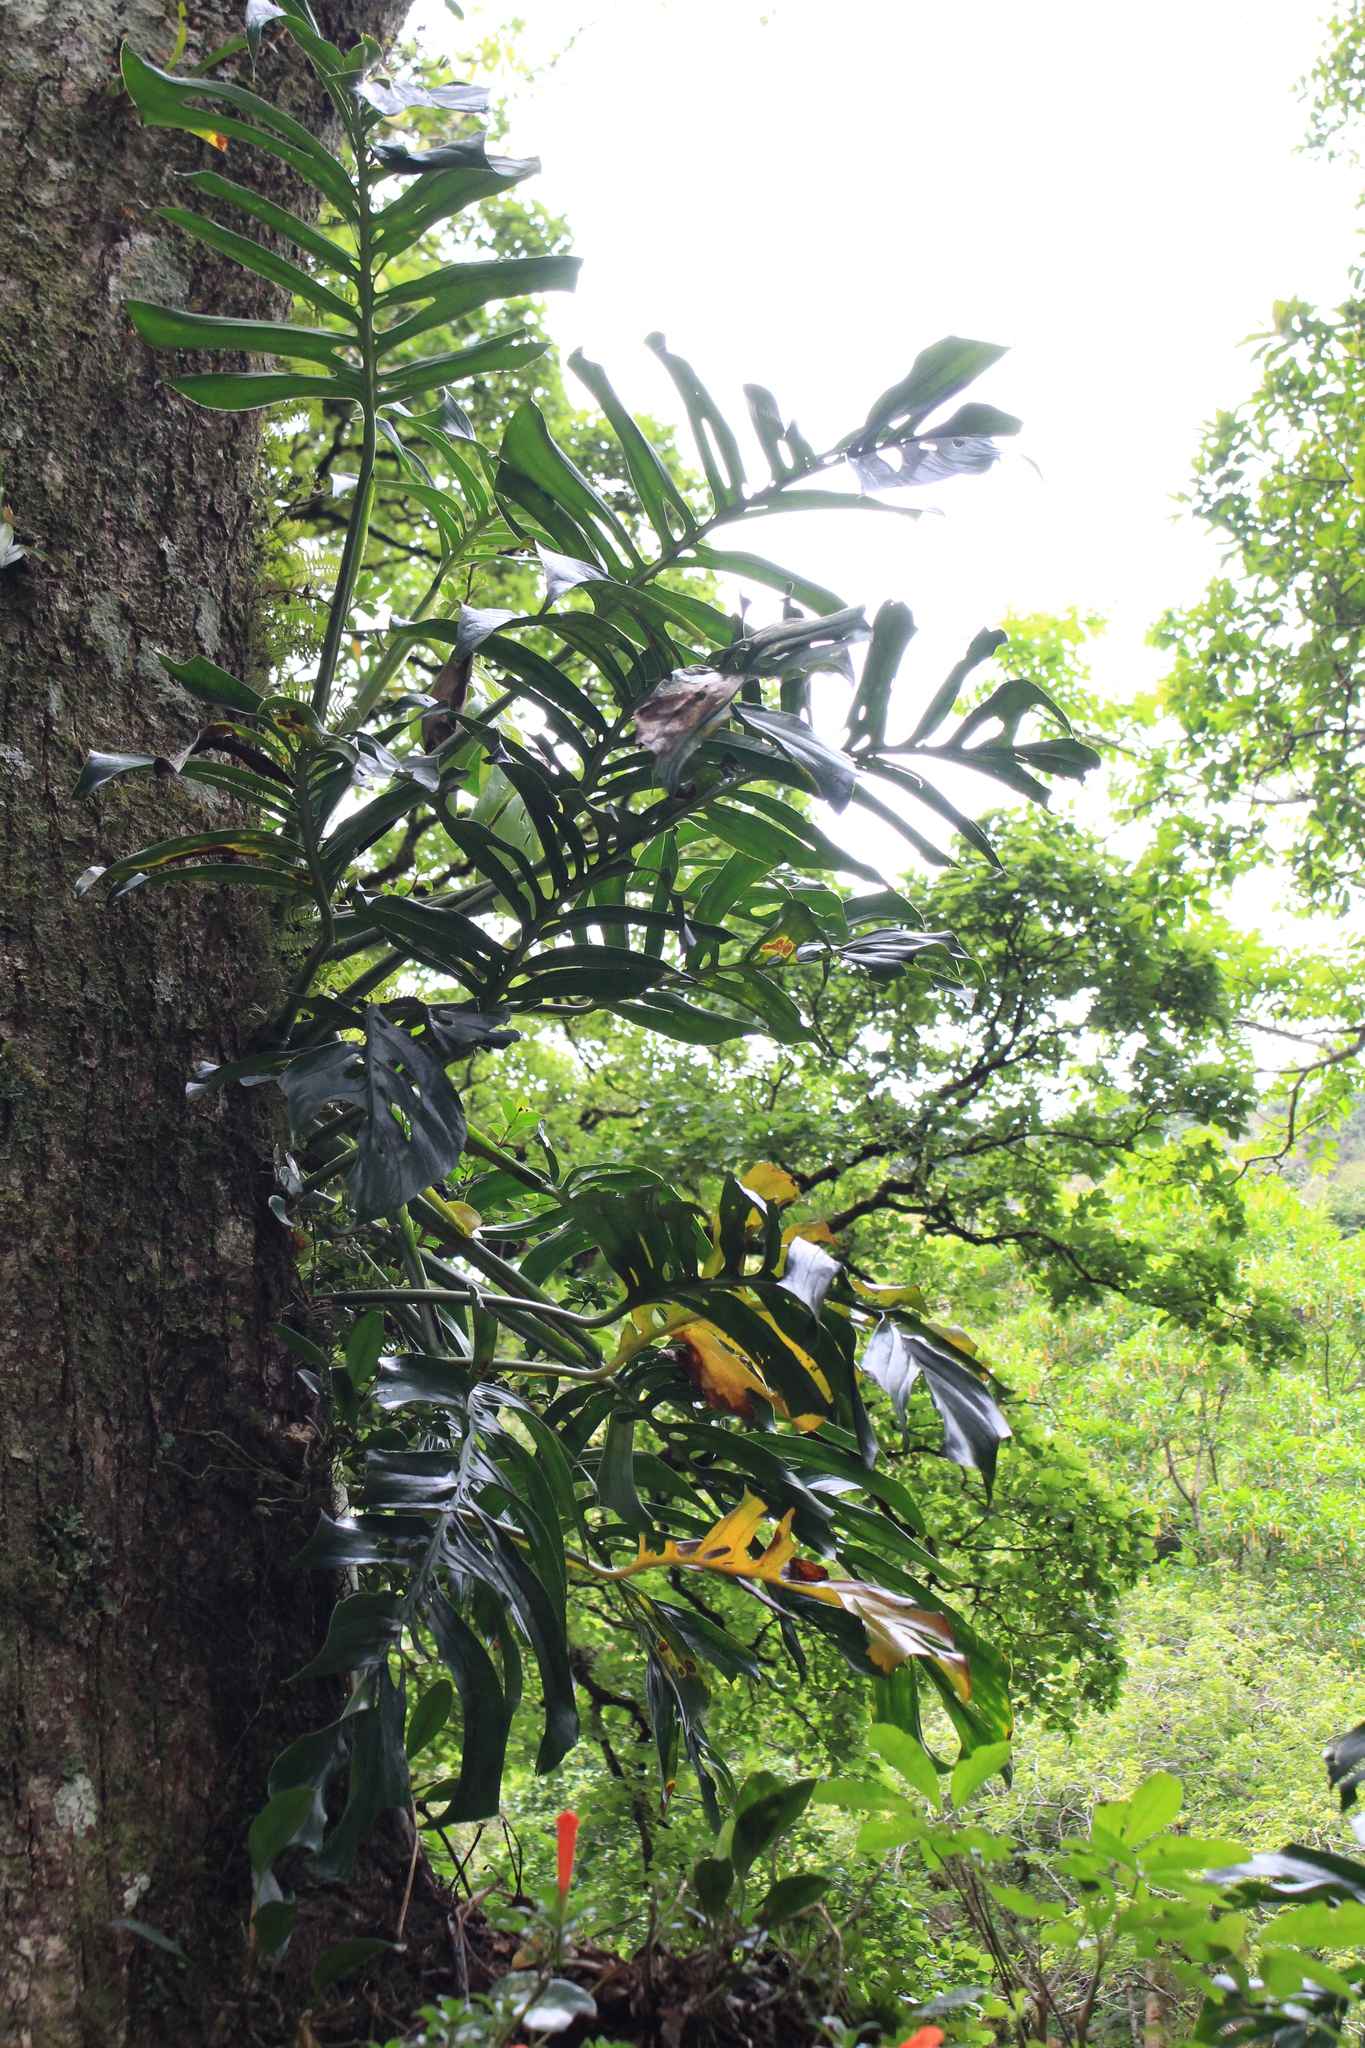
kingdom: Plantae
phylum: Tracheophyta
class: Liliopsida
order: Alismatales
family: Araceae
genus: Monstera
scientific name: Monstera epipremnoides
